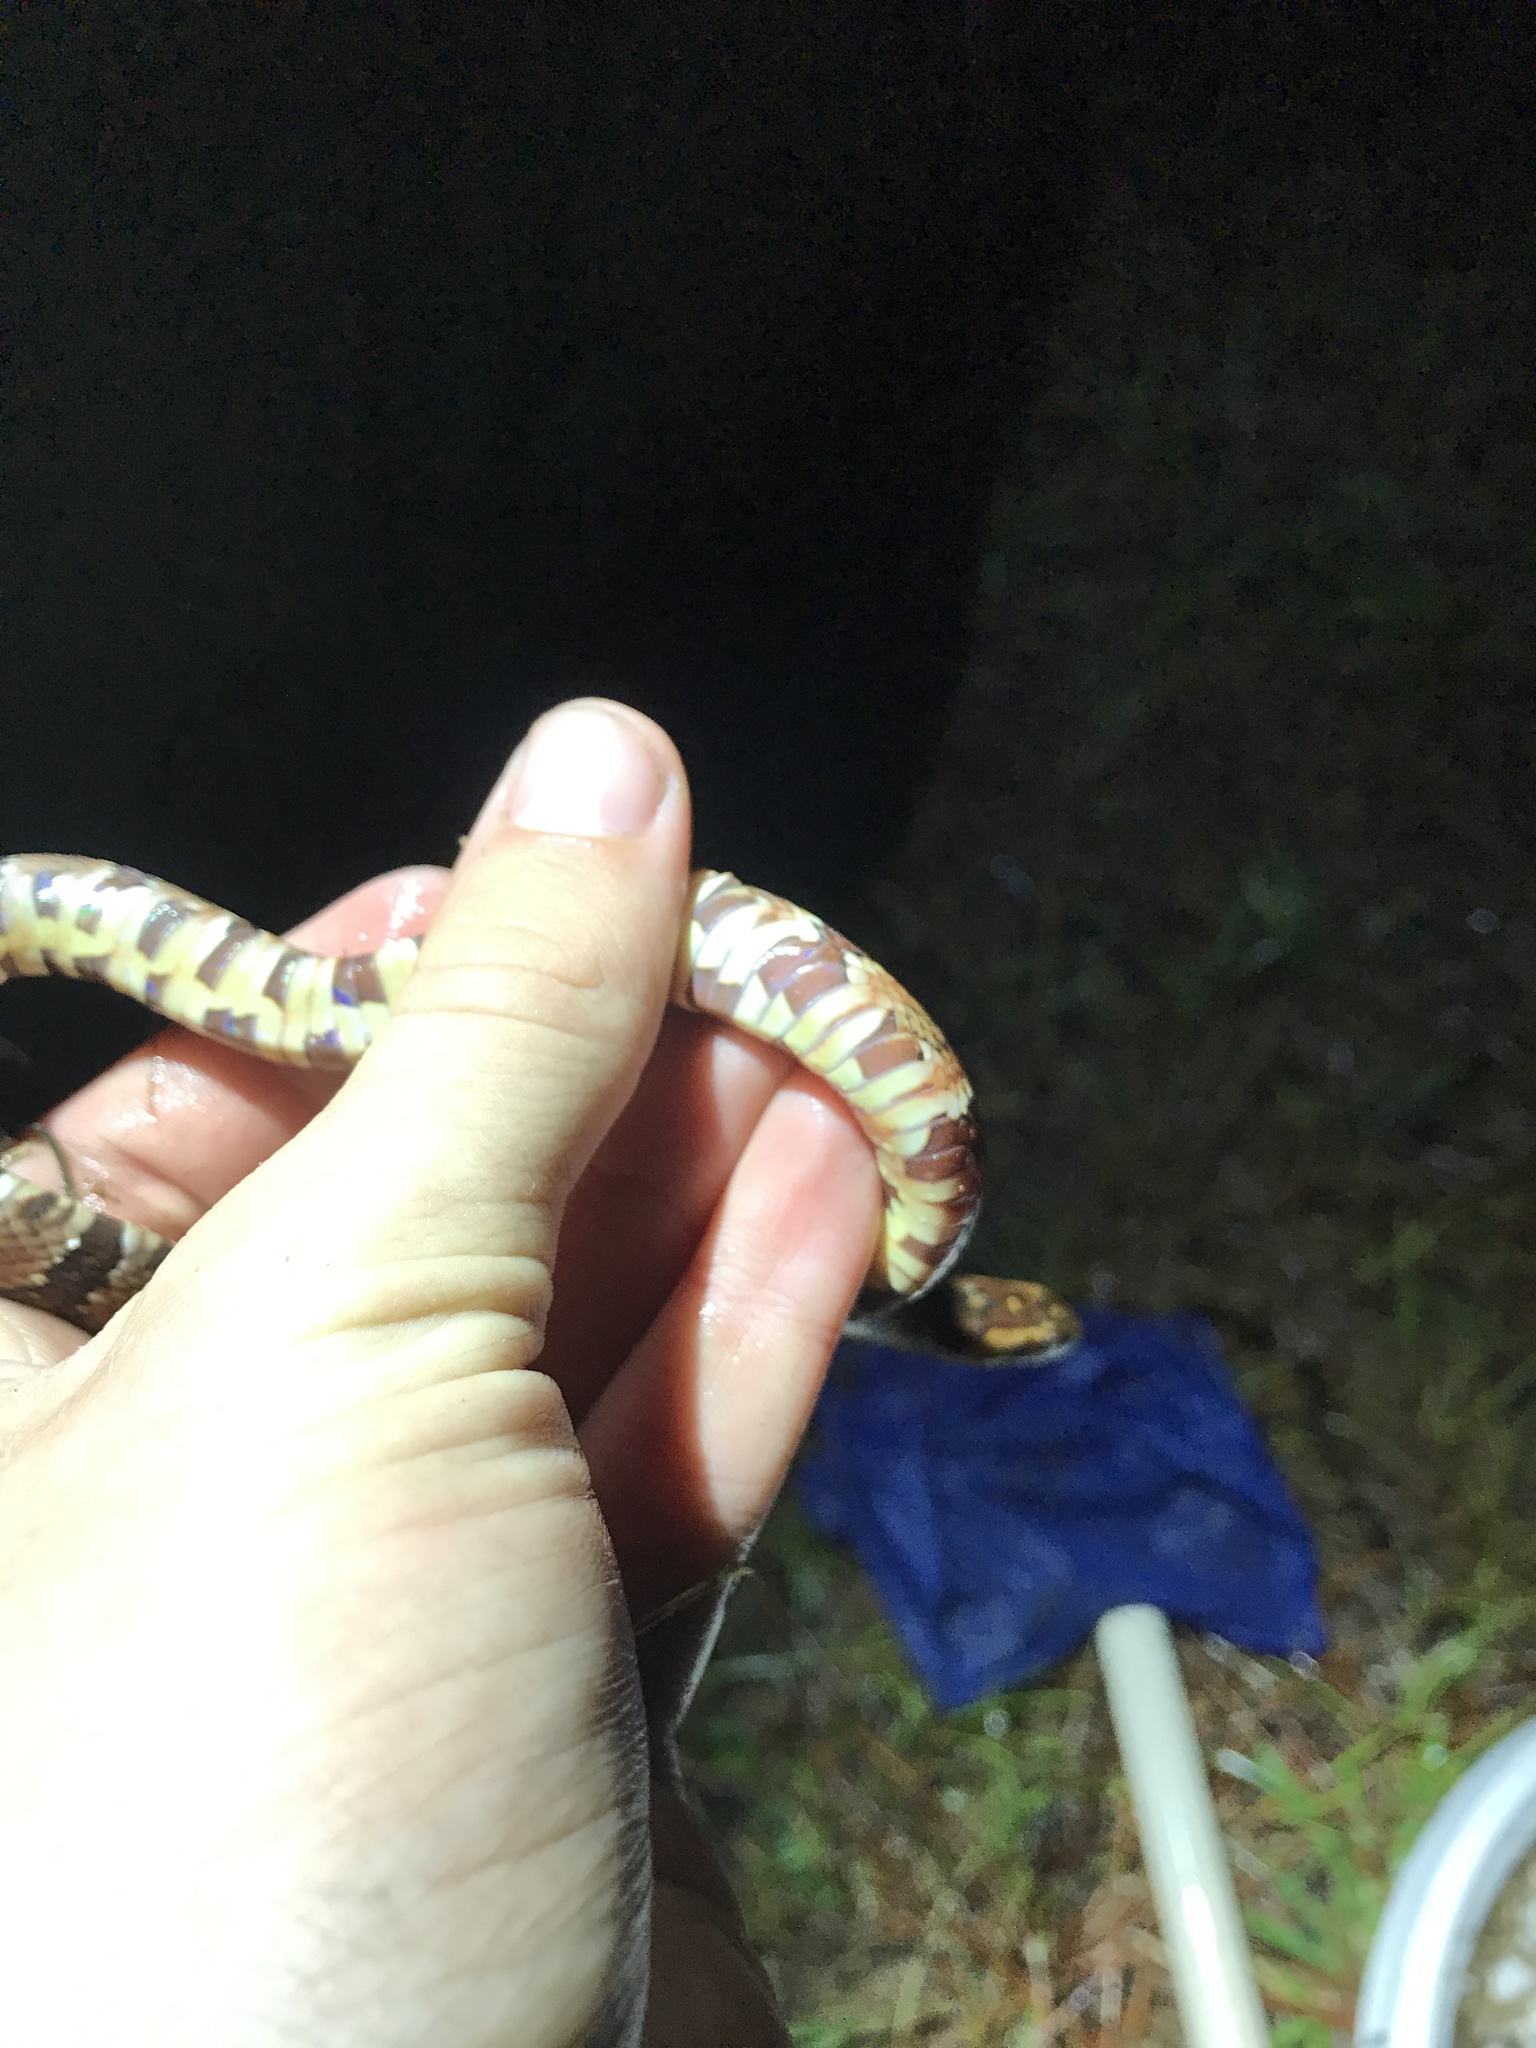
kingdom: Animalia
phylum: Chordata
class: Squamata
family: Colubridae
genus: Nerodia
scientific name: Nerodia fasciata
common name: Southern water snake
